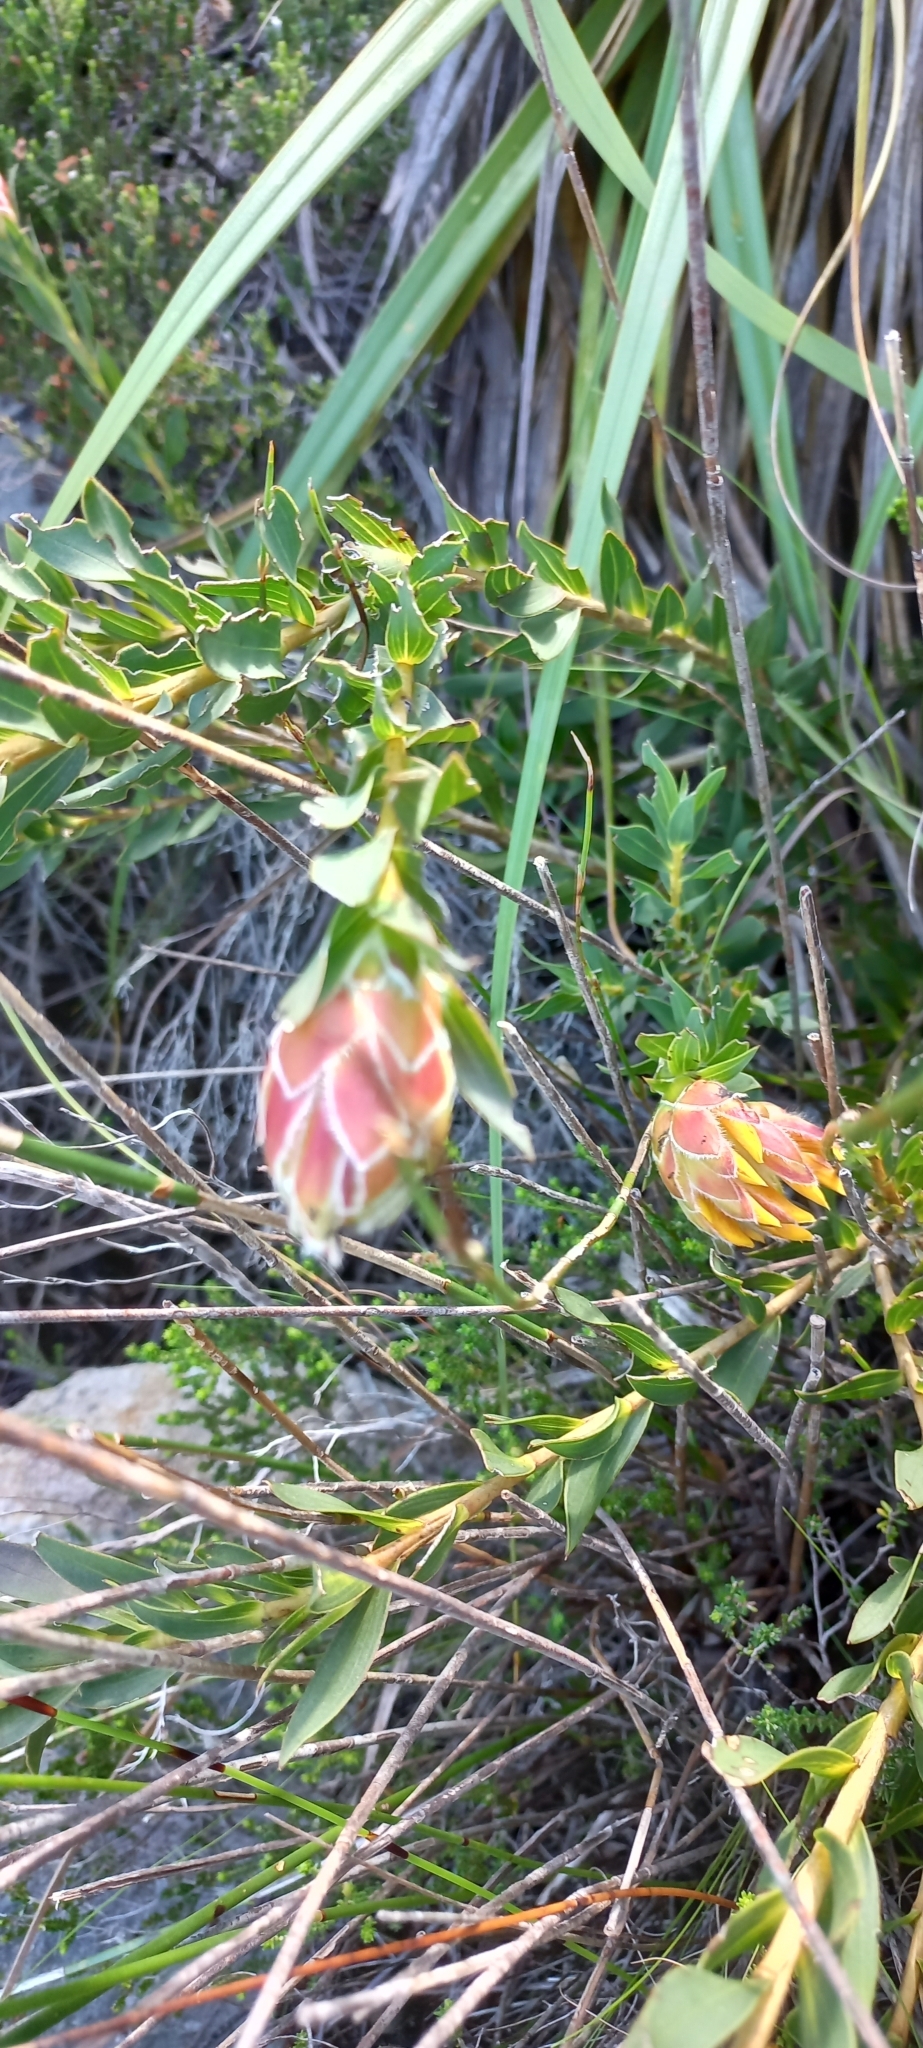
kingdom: Plantae
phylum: Tracheophyta
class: Magnoliopsida
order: Fabales
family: Fabaceae
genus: Liparia
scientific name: Liparia splendens
